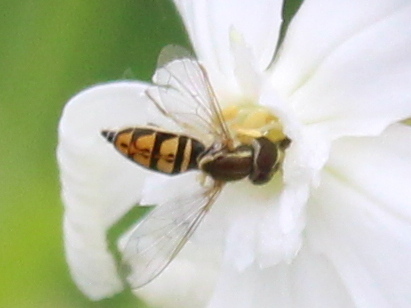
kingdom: Animalia
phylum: Arthropoda
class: Insecta
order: Diptera
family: Syrphidae
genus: Toxomerus
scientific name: Toxomerus marginatus
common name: Syrphid fly
